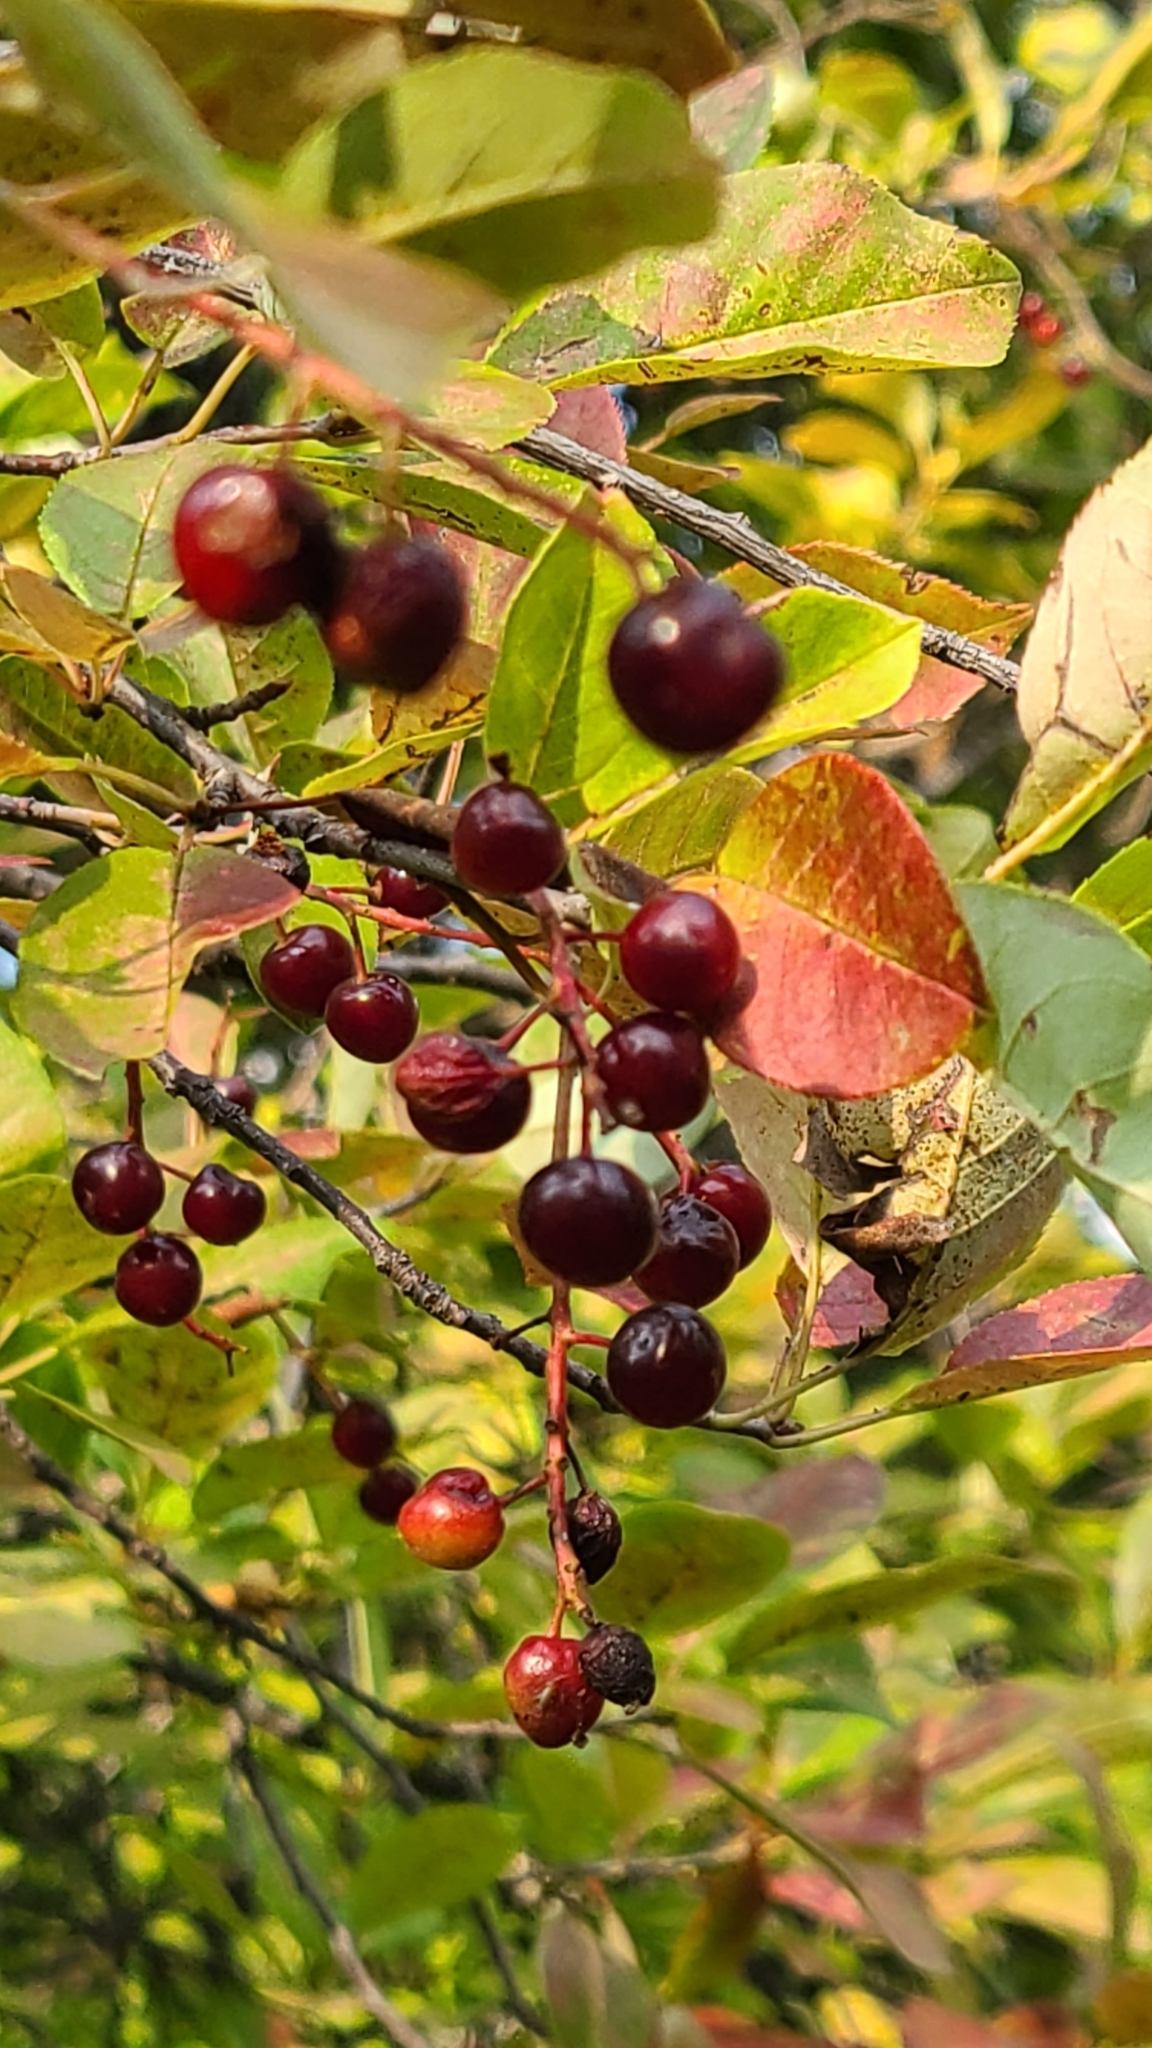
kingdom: Plantae
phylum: Tracheophyta
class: Magnoliopsida
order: Rosales
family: Rosaceae
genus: Prunus
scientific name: Prunus virginiana
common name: Chokecherry
